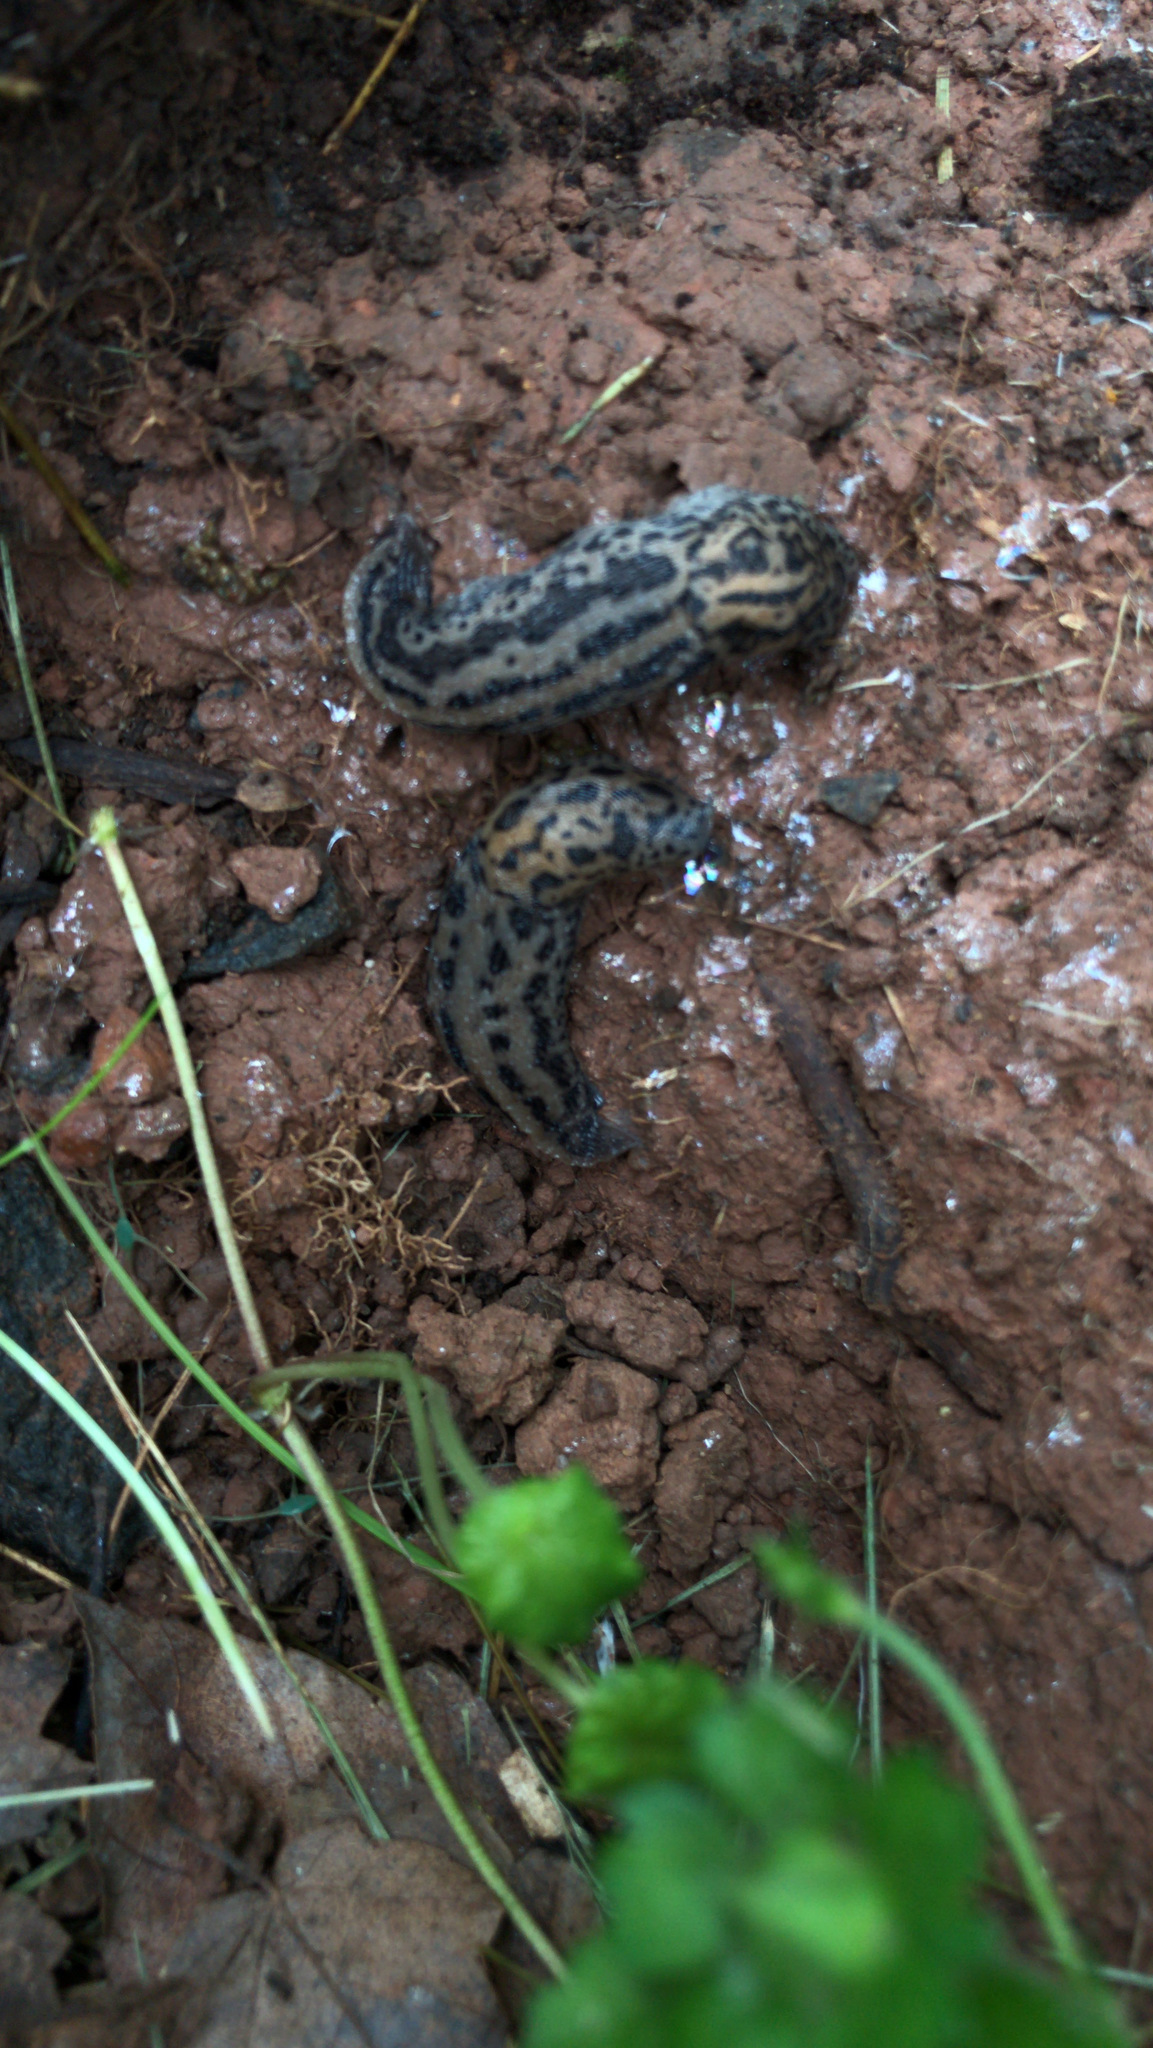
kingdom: Animalia
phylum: Mollusca
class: Gastropoda
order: Stylommatophora
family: Limacidae
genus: Limax
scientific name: Limax maximus
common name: Great grey slug
